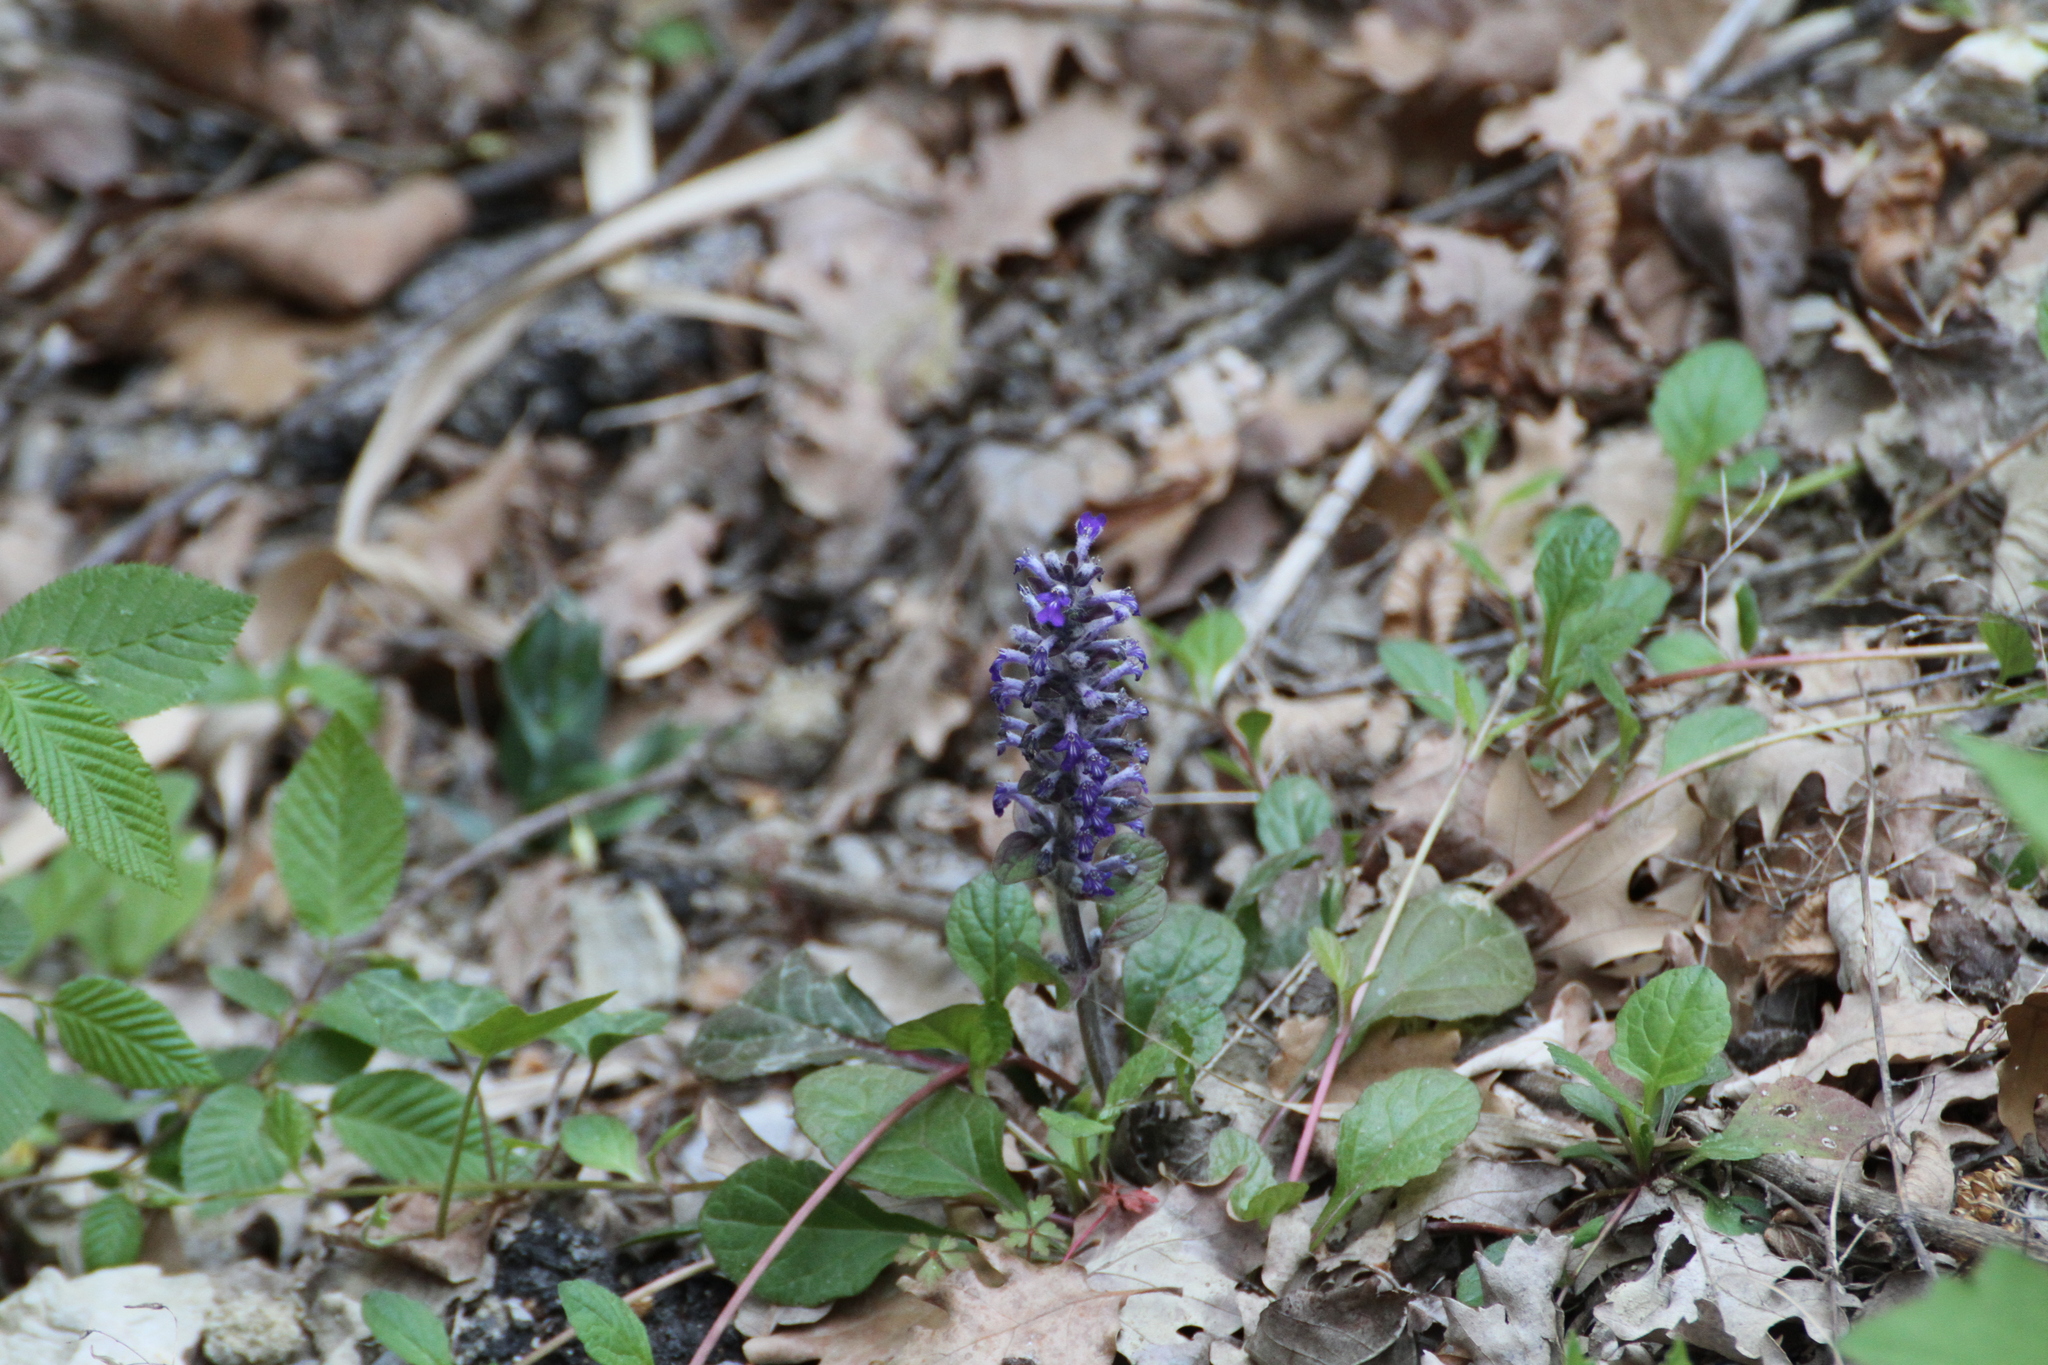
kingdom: Plantae
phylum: Tracheophyta
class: Magnoliopsida
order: Lamiales
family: Lamiaceae
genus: Ajuga
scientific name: Ajuga reptans
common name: Bugle
